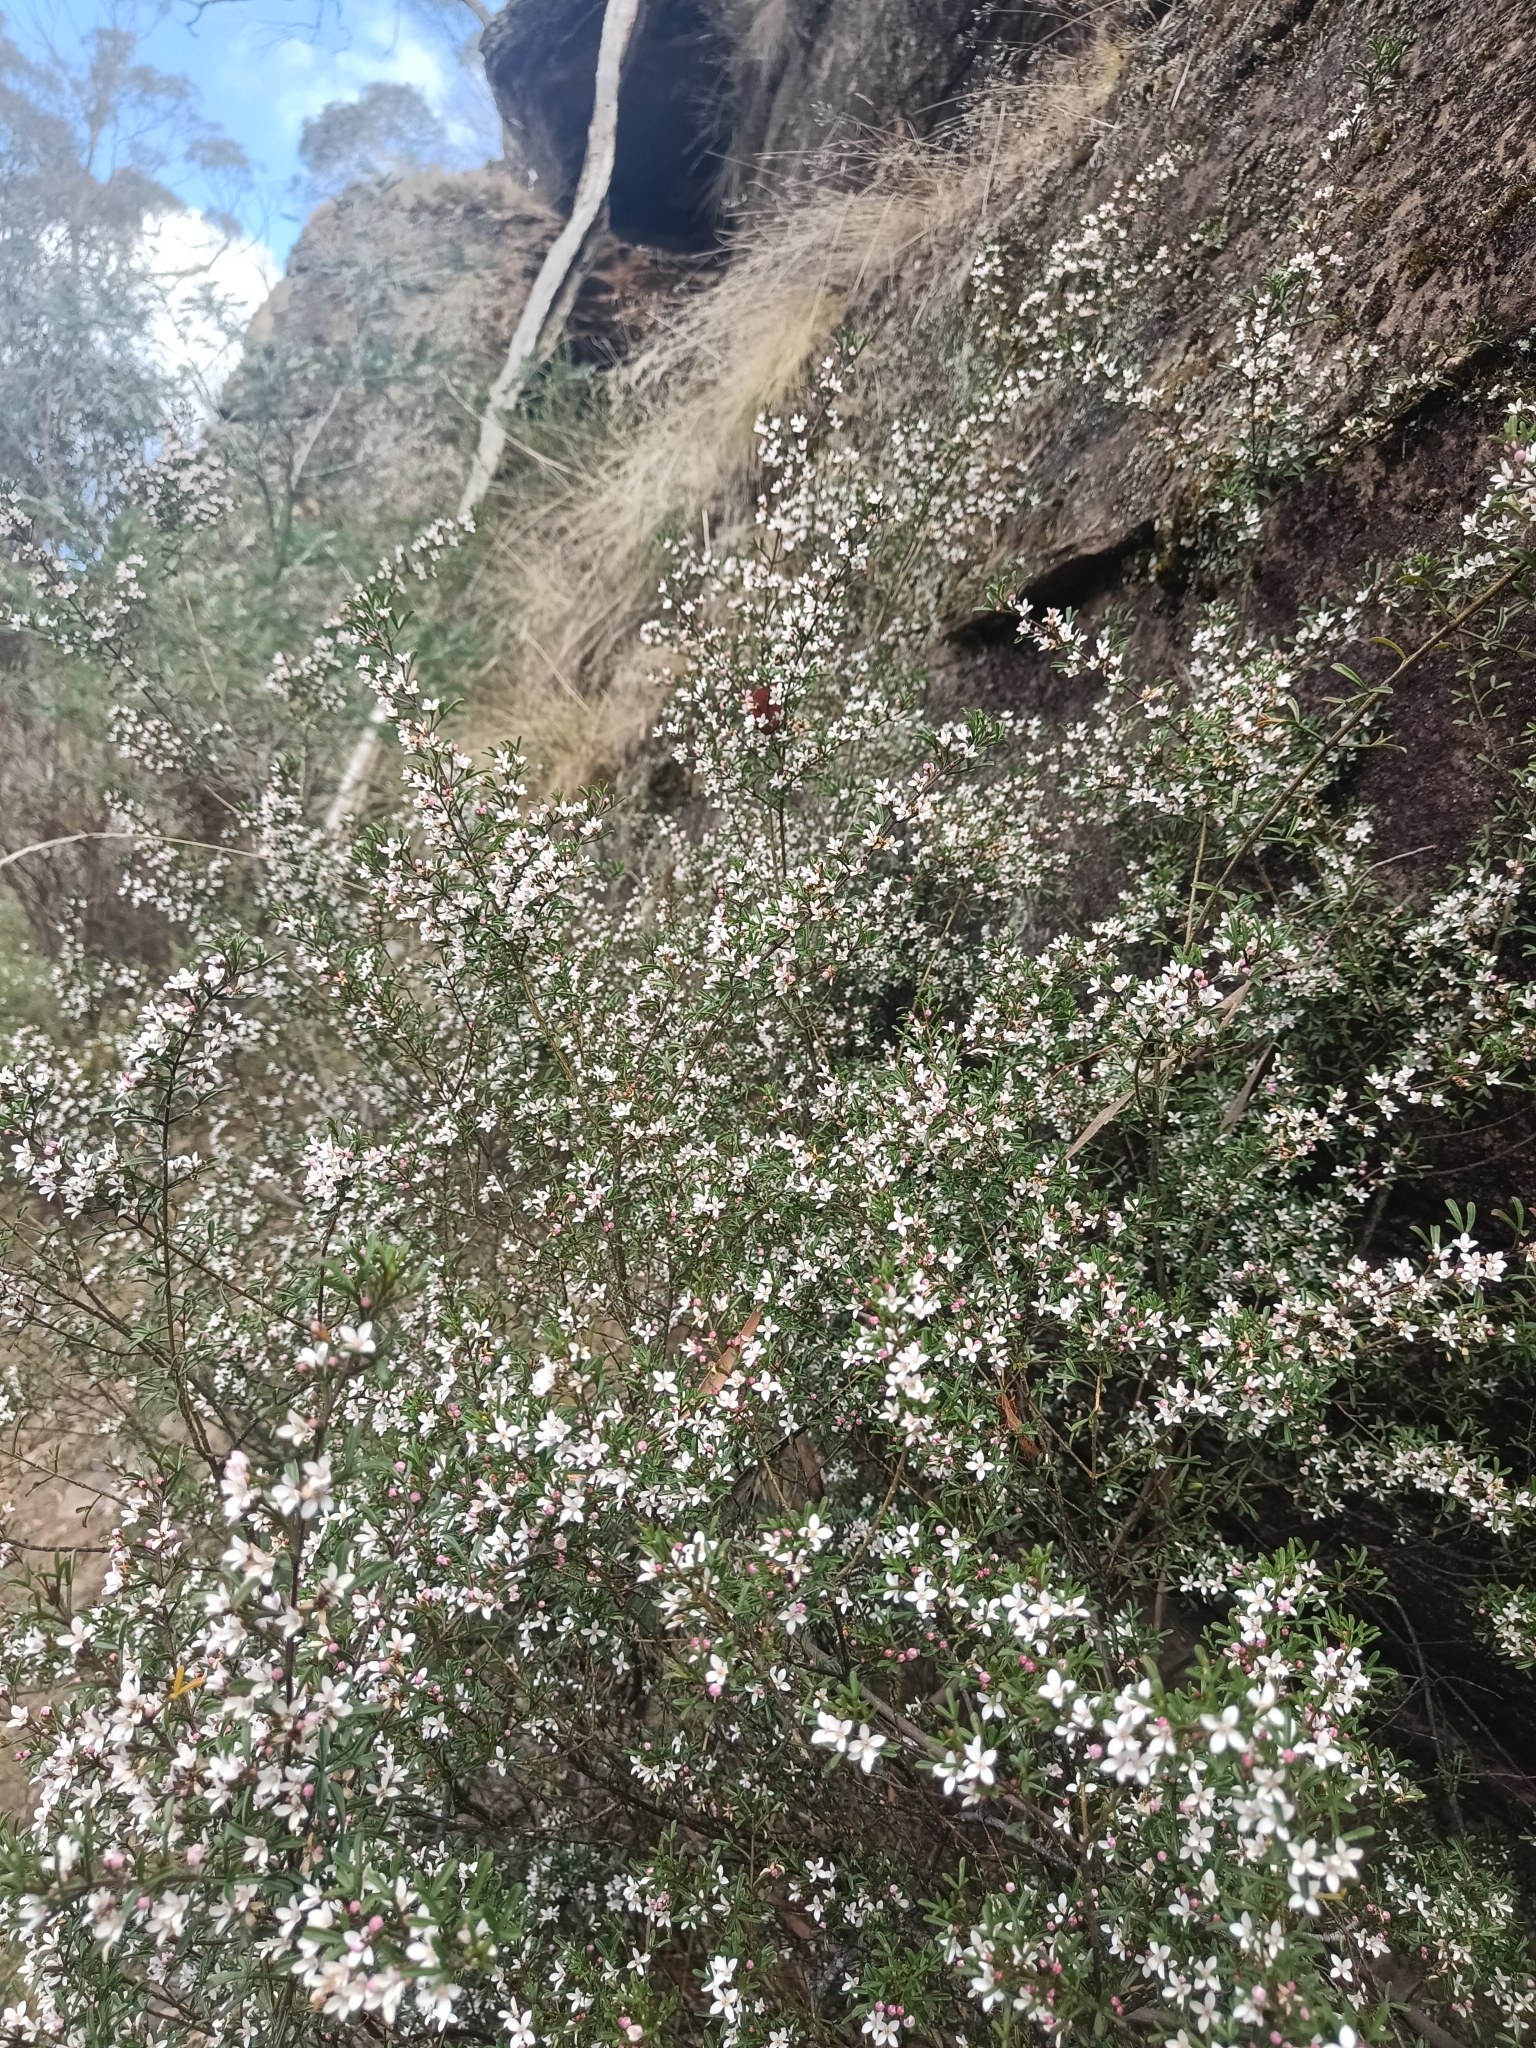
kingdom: Plantae
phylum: Tracheophyta
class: Magnoliopsida
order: Sapindales
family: Rutaceae
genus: Cyanothamnus
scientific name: Cyanothamnus anemonifolius
